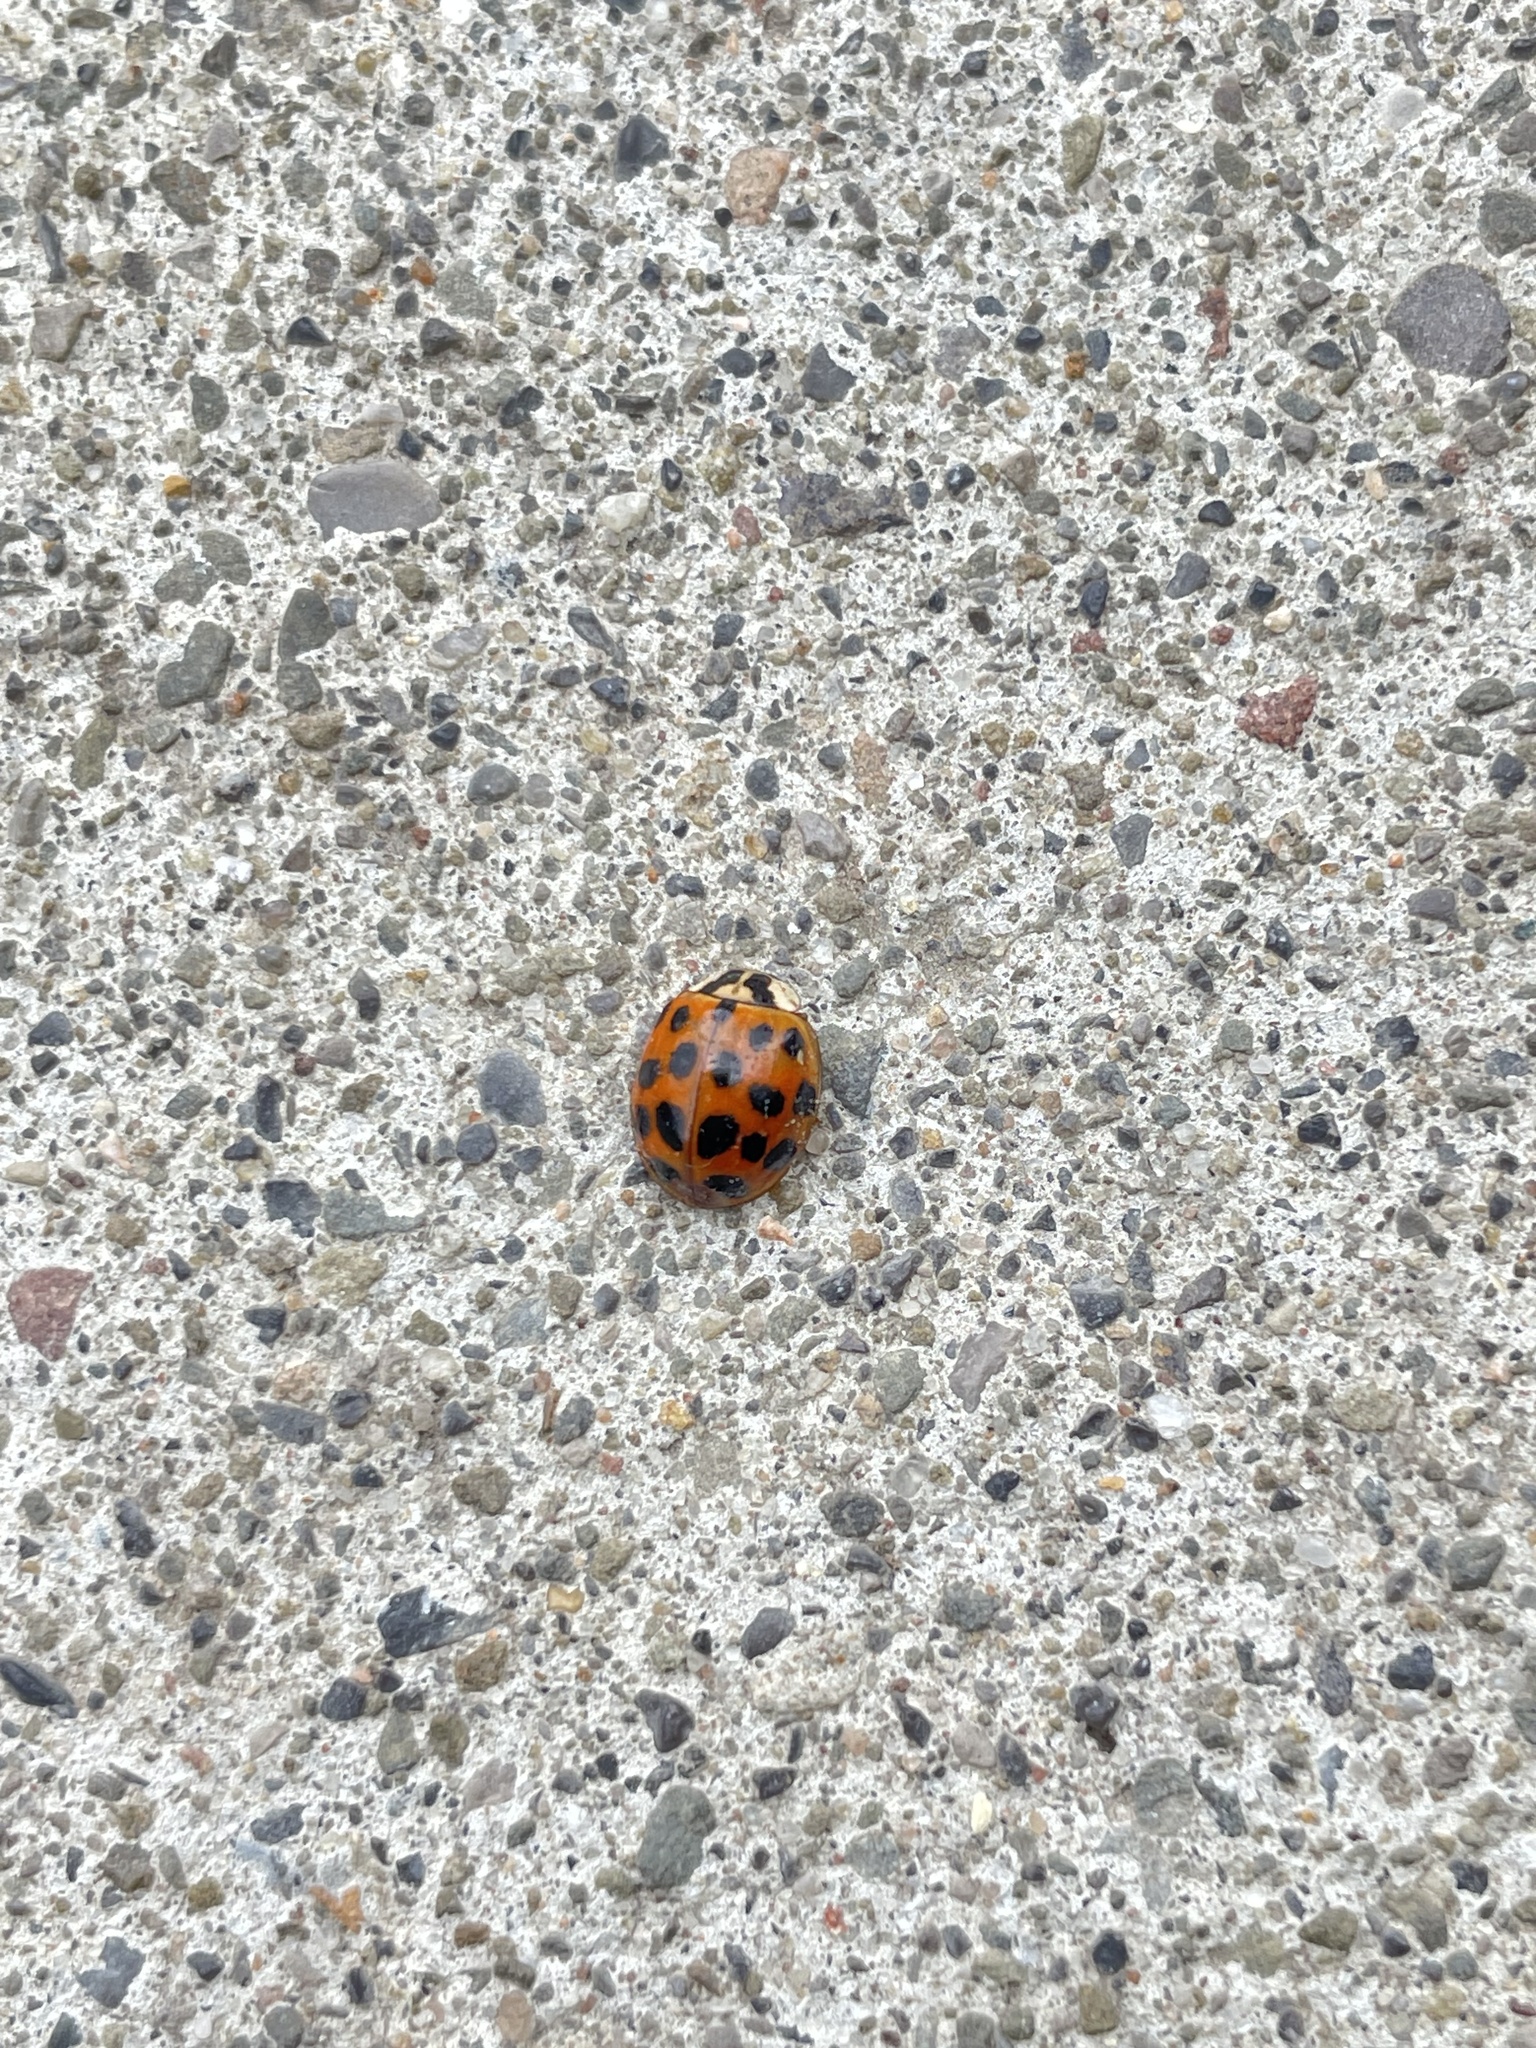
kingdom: Animalia
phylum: Arthropoda
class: Insecta
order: Coleoptera
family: Coccinellidae
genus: Harmonia
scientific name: Harmonia axyridis
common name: Harlequin ladybird
